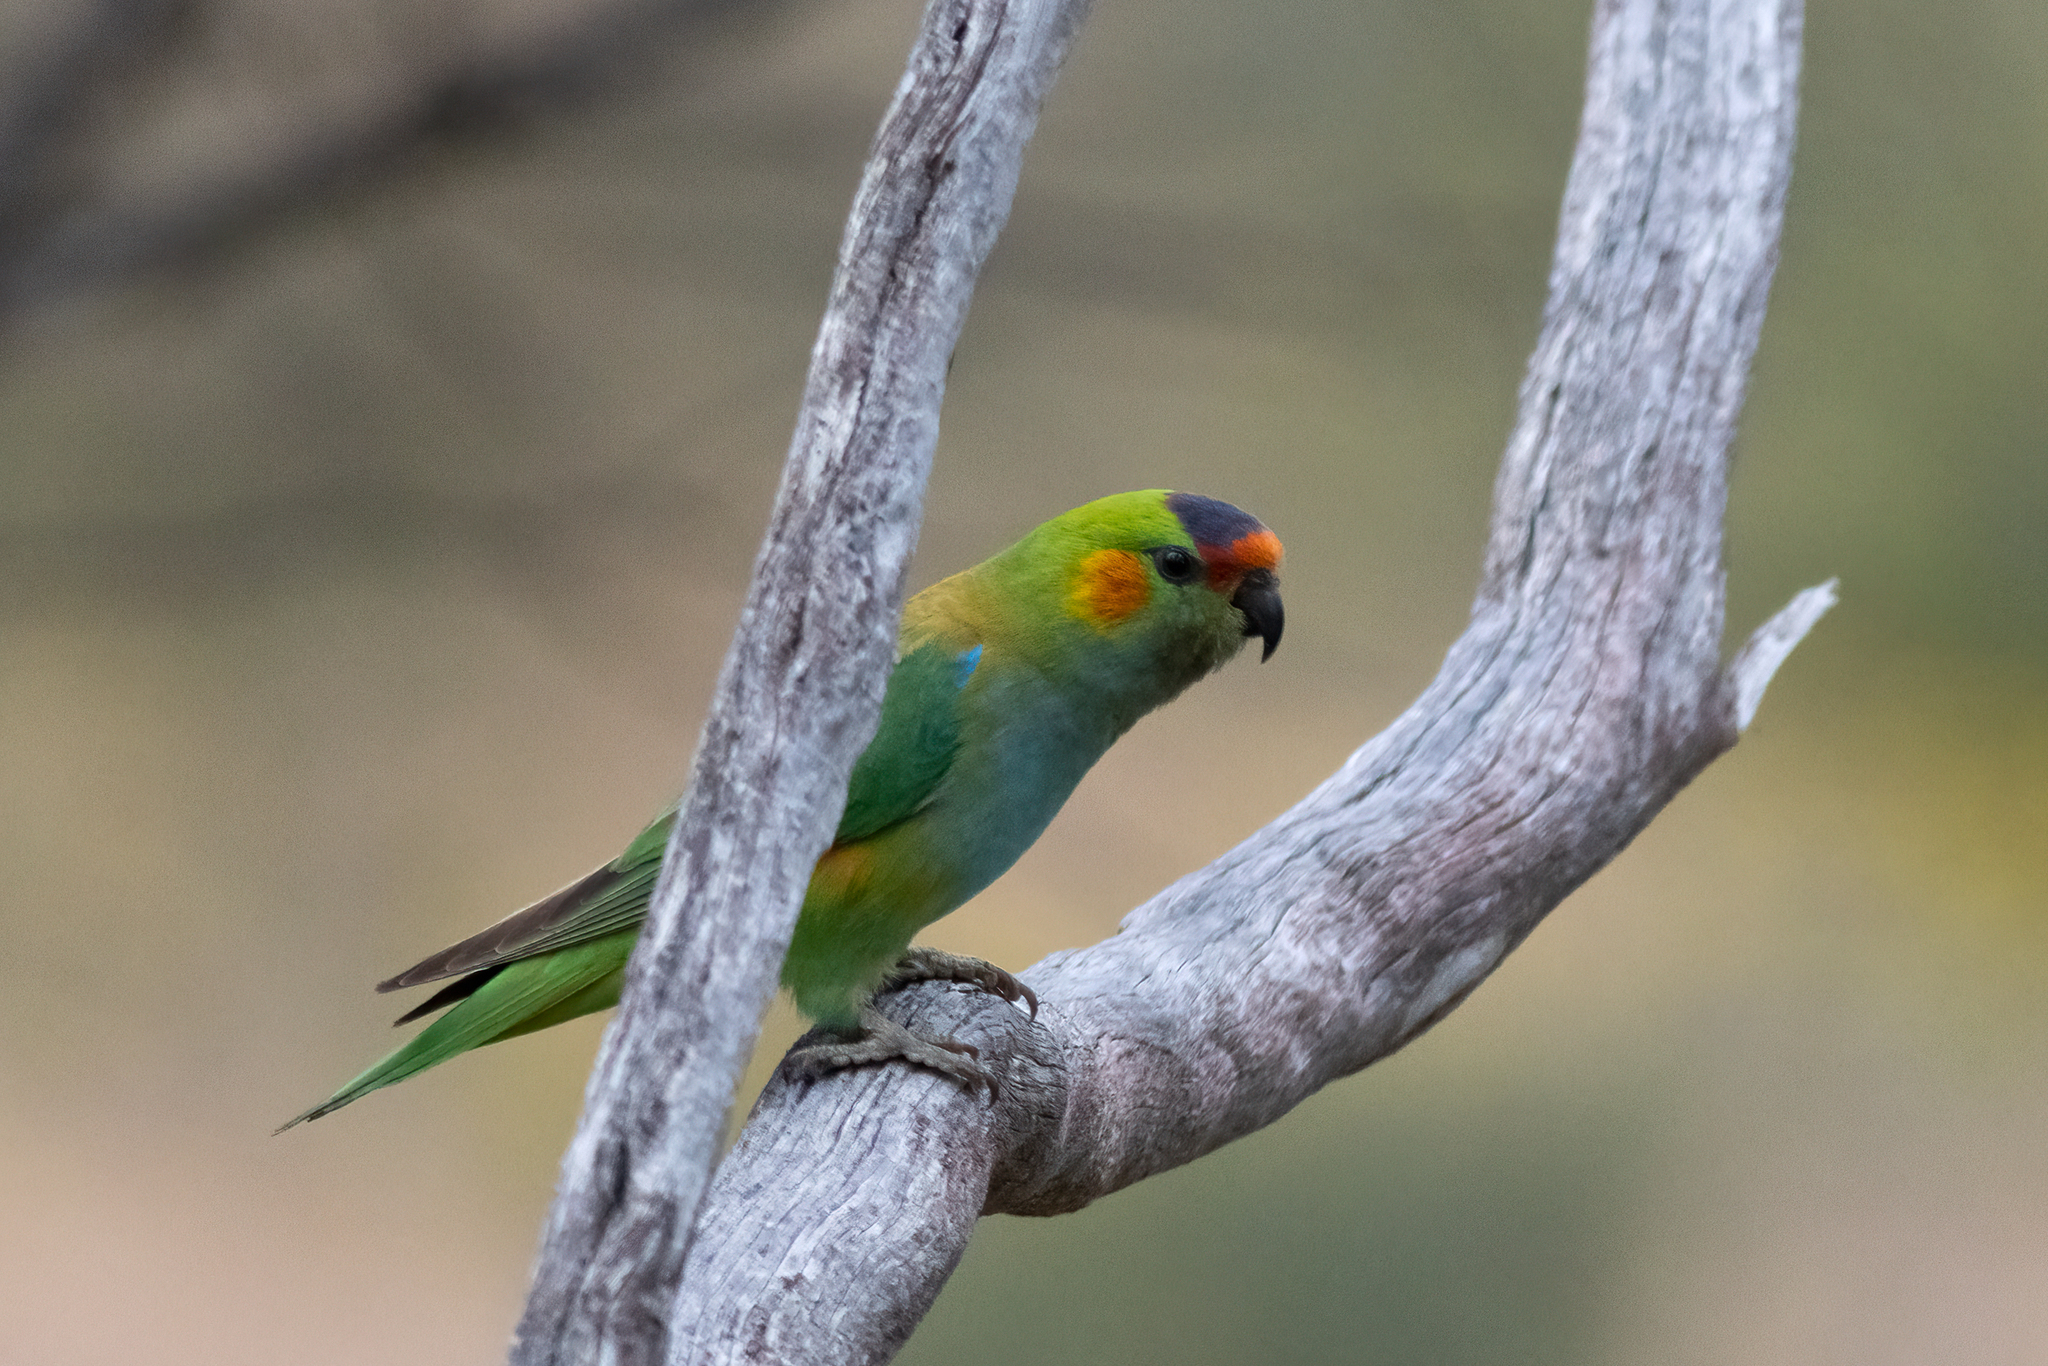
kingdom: Animalia
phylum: Chordata
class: Aves
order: Psittaciformes
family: Psittaculidae
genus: Parvipsitta
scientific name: Parvipsitta porphyrocephala
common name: Purple-crowned lorikeet
